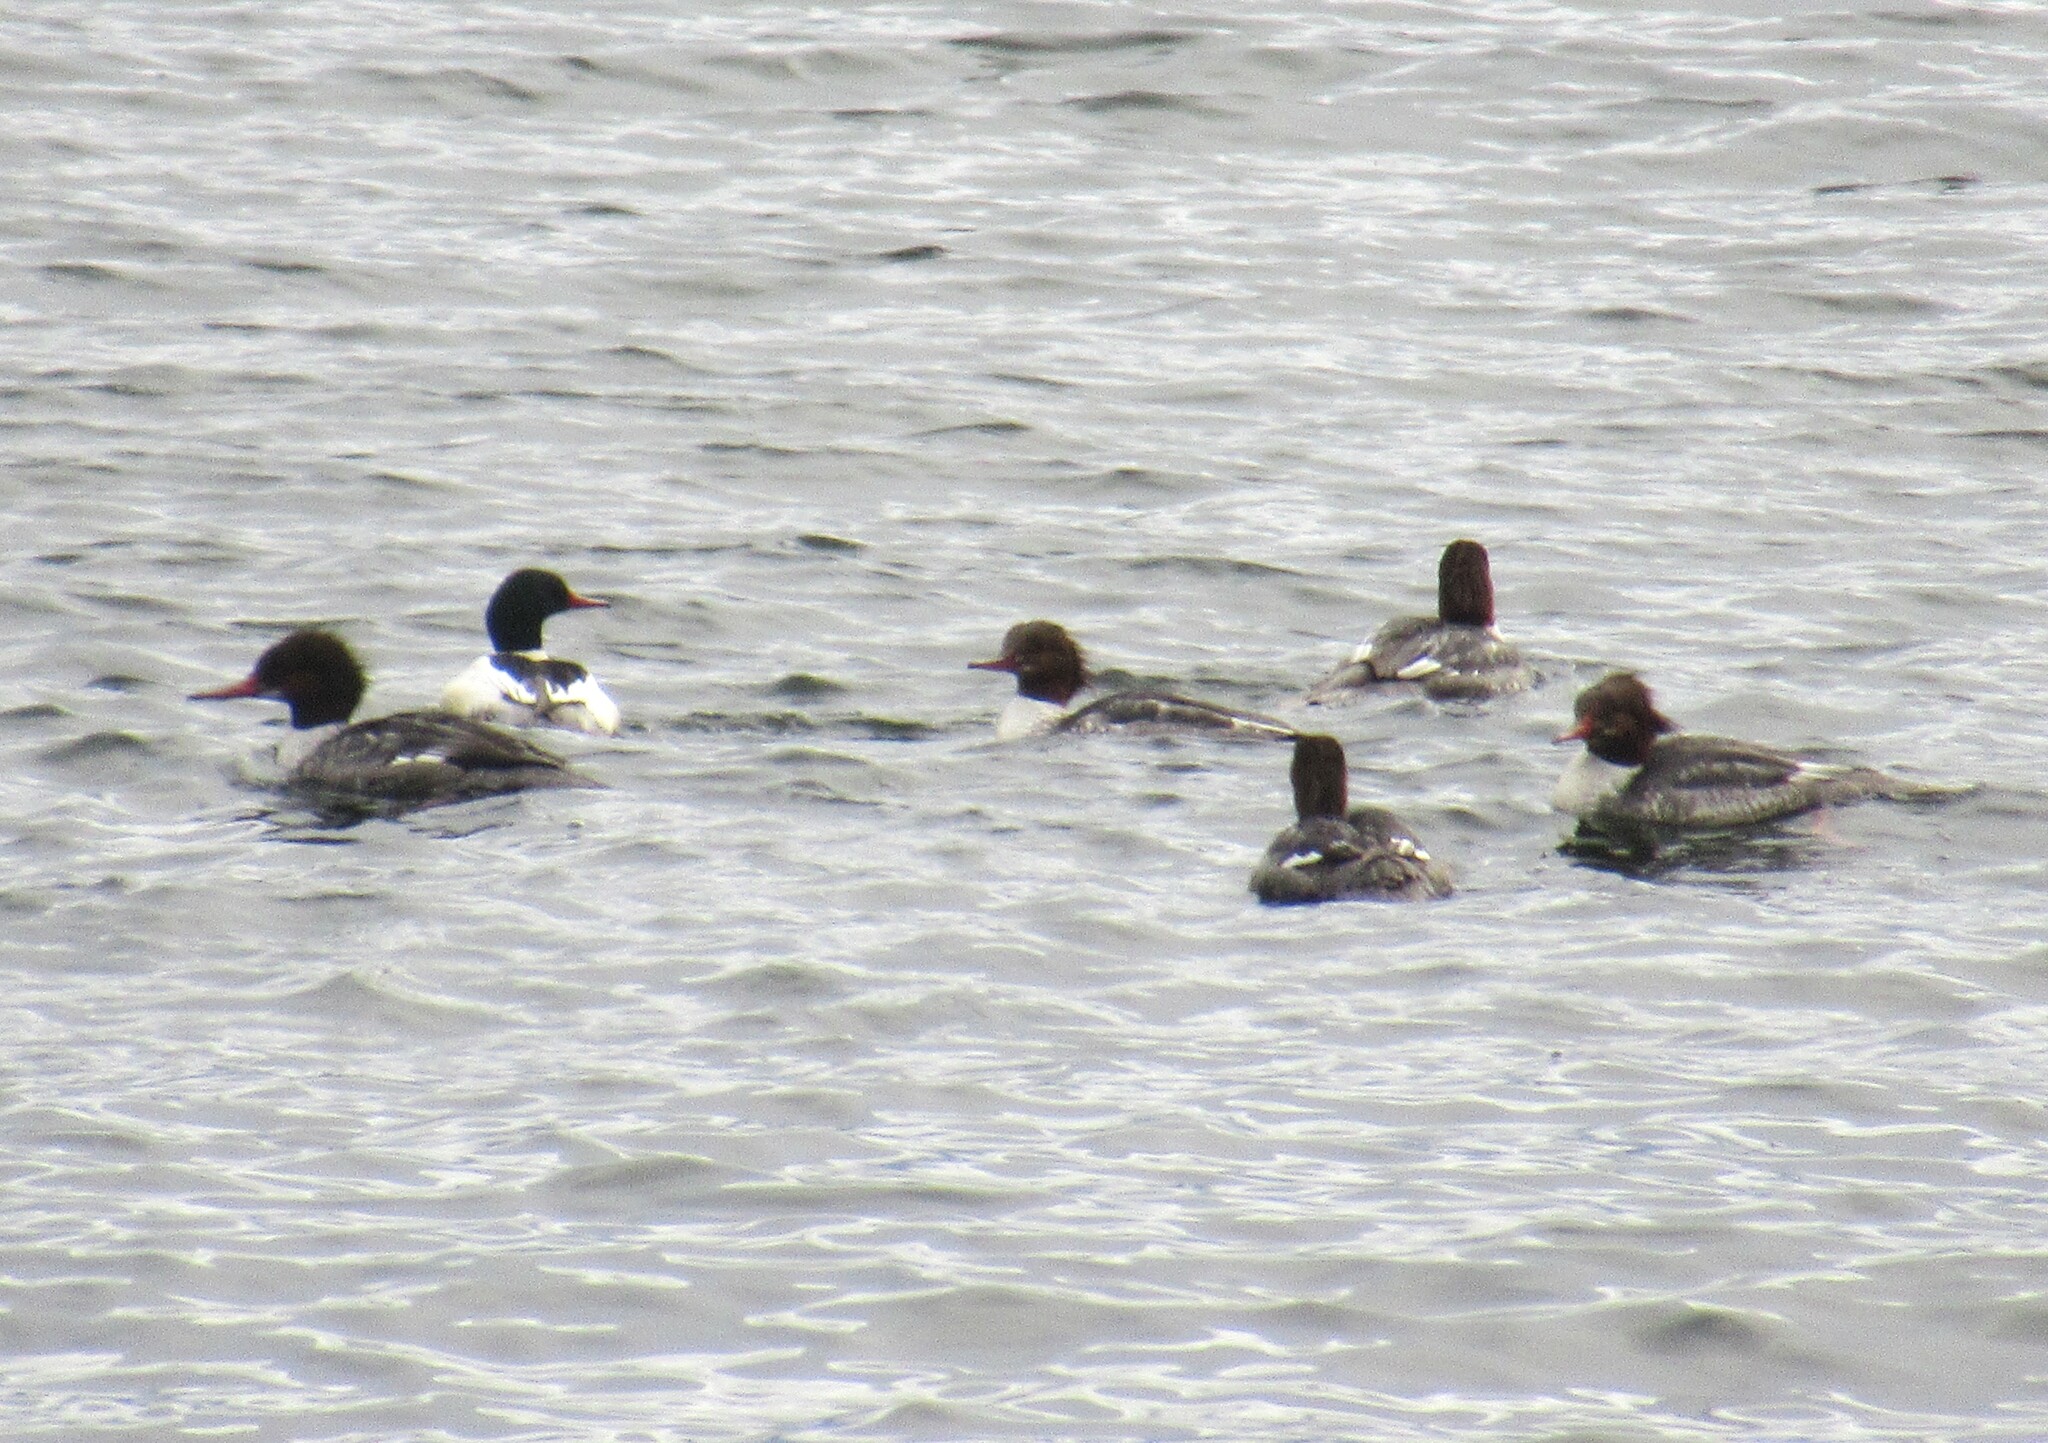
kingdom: Animalia
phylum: Chordata
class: Aves
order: Anseriformes
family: Anatidae
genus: Mergus
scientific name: Mergus merganser
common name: Common merganser
